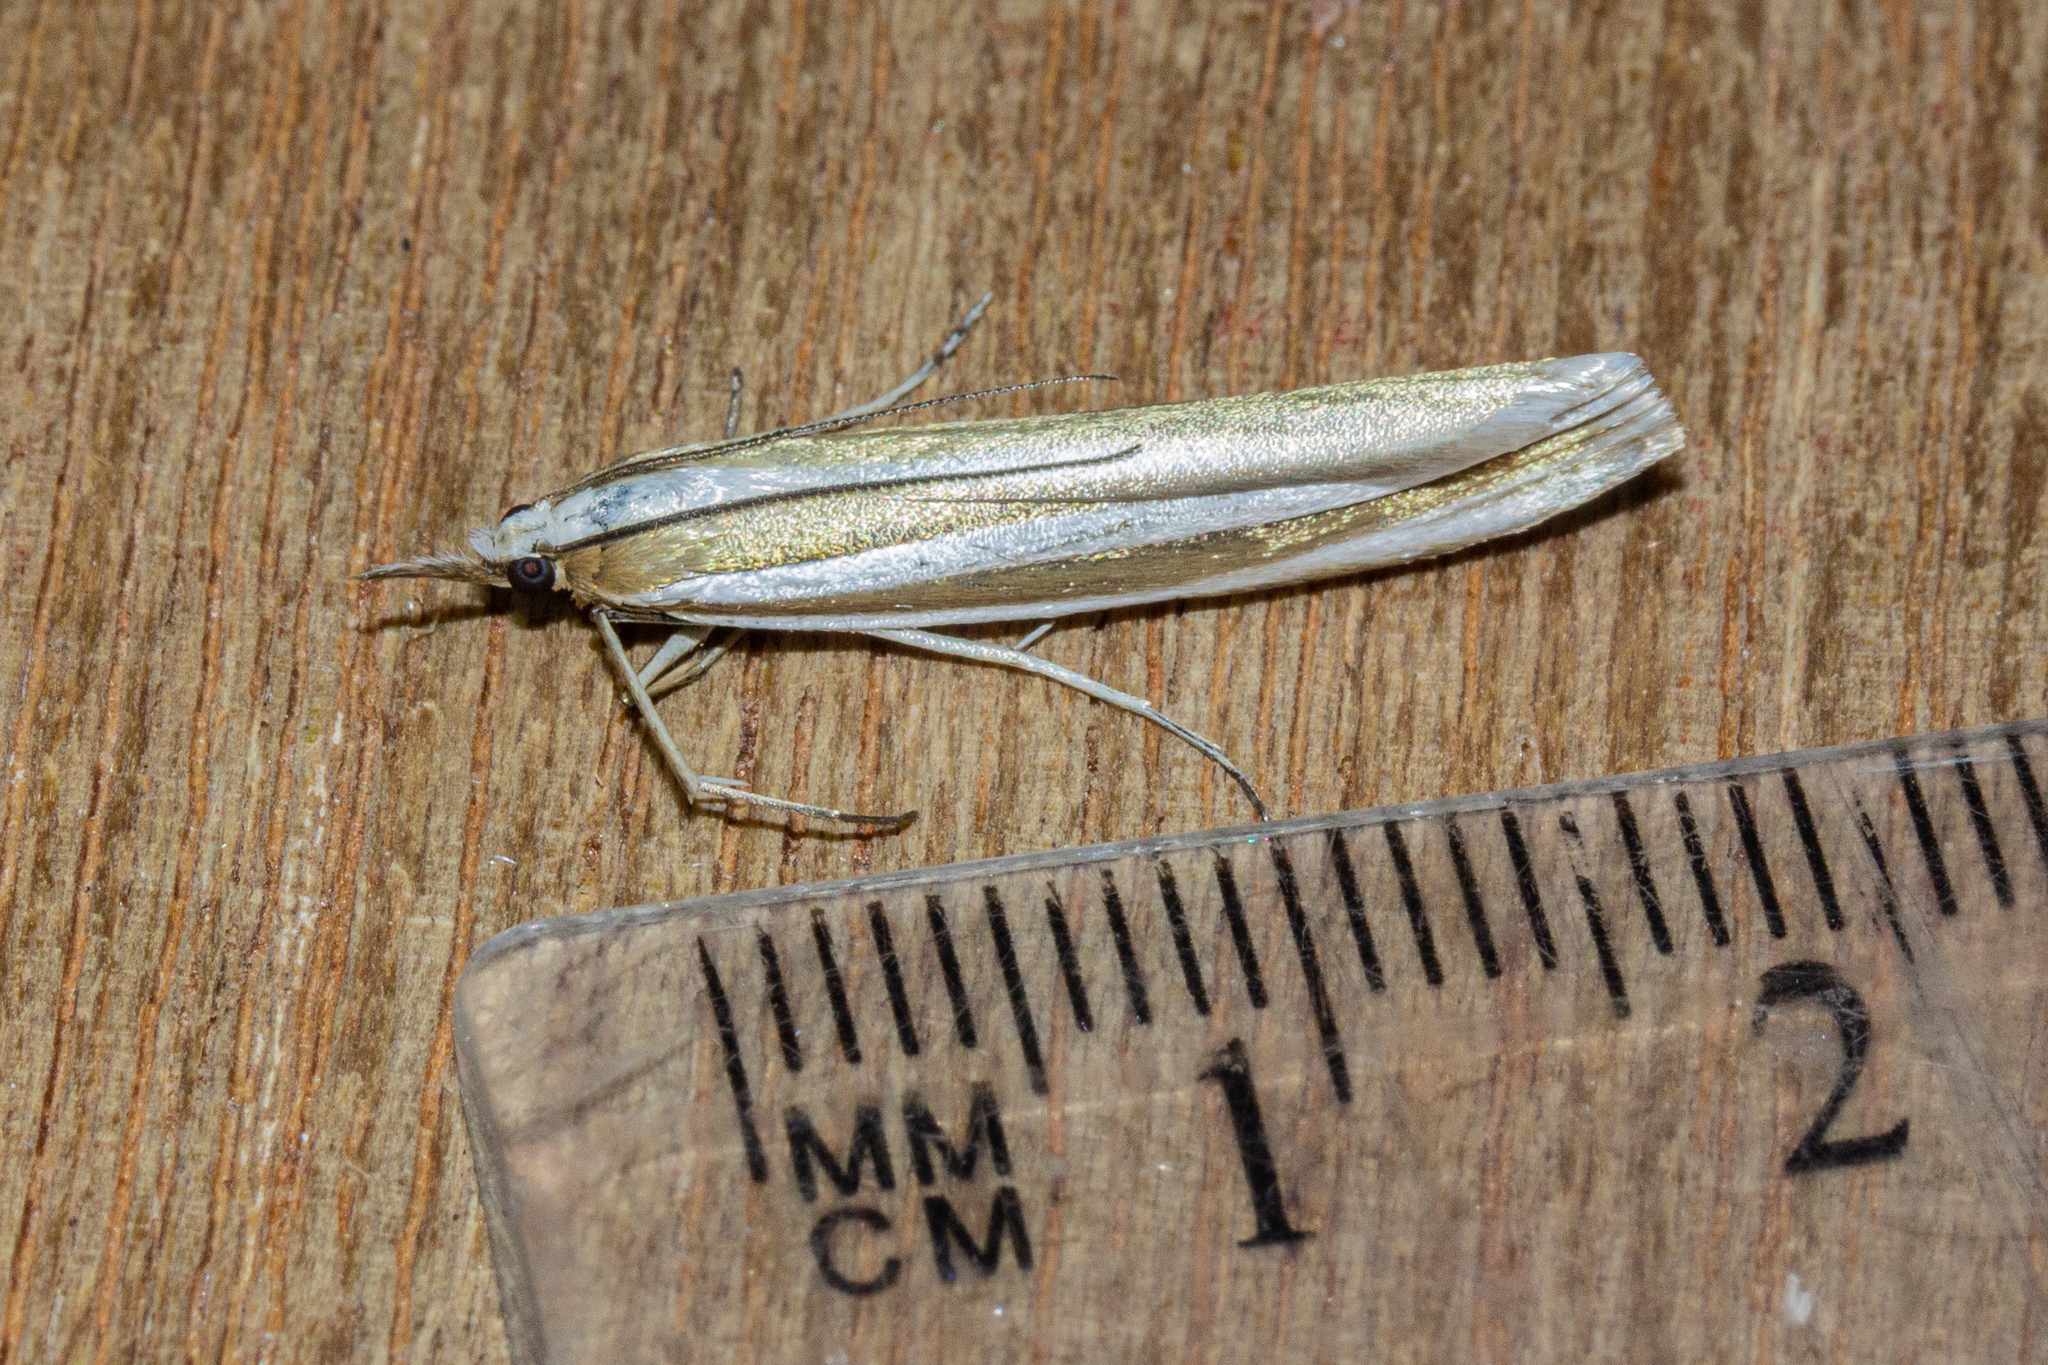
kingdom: Animalia
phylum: Arthropoda
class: Insecta
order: Lepidoptera
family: Crambidae
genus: Orocrambus
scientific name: Orocrambus lewisi
